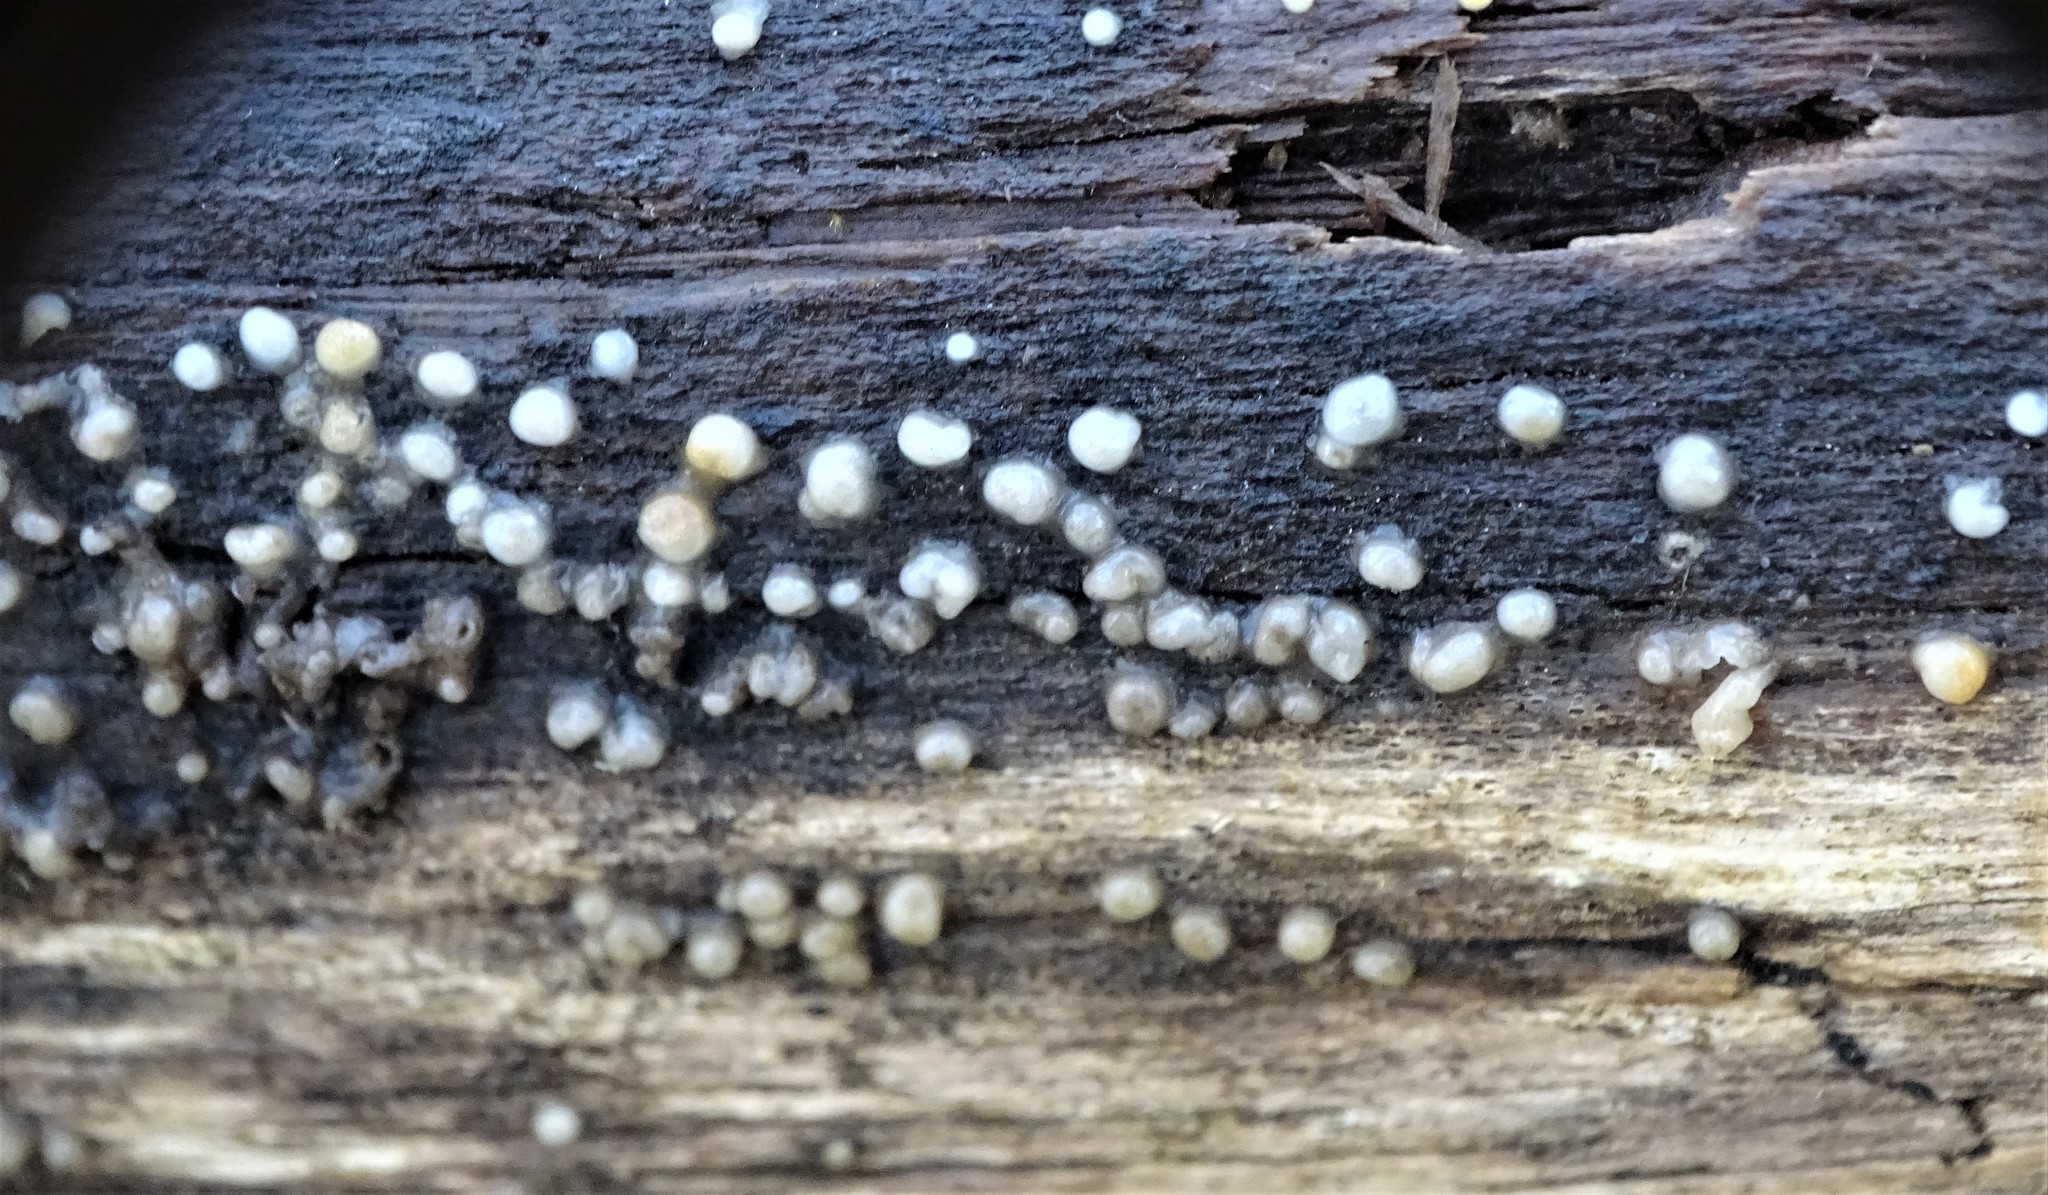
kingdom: Fungi
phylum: Basidiomycota
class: Atractiellomycetes
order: Atractiellales
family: Phleogenaceae
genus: Helicogloea
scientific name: Helicogloea compressa
